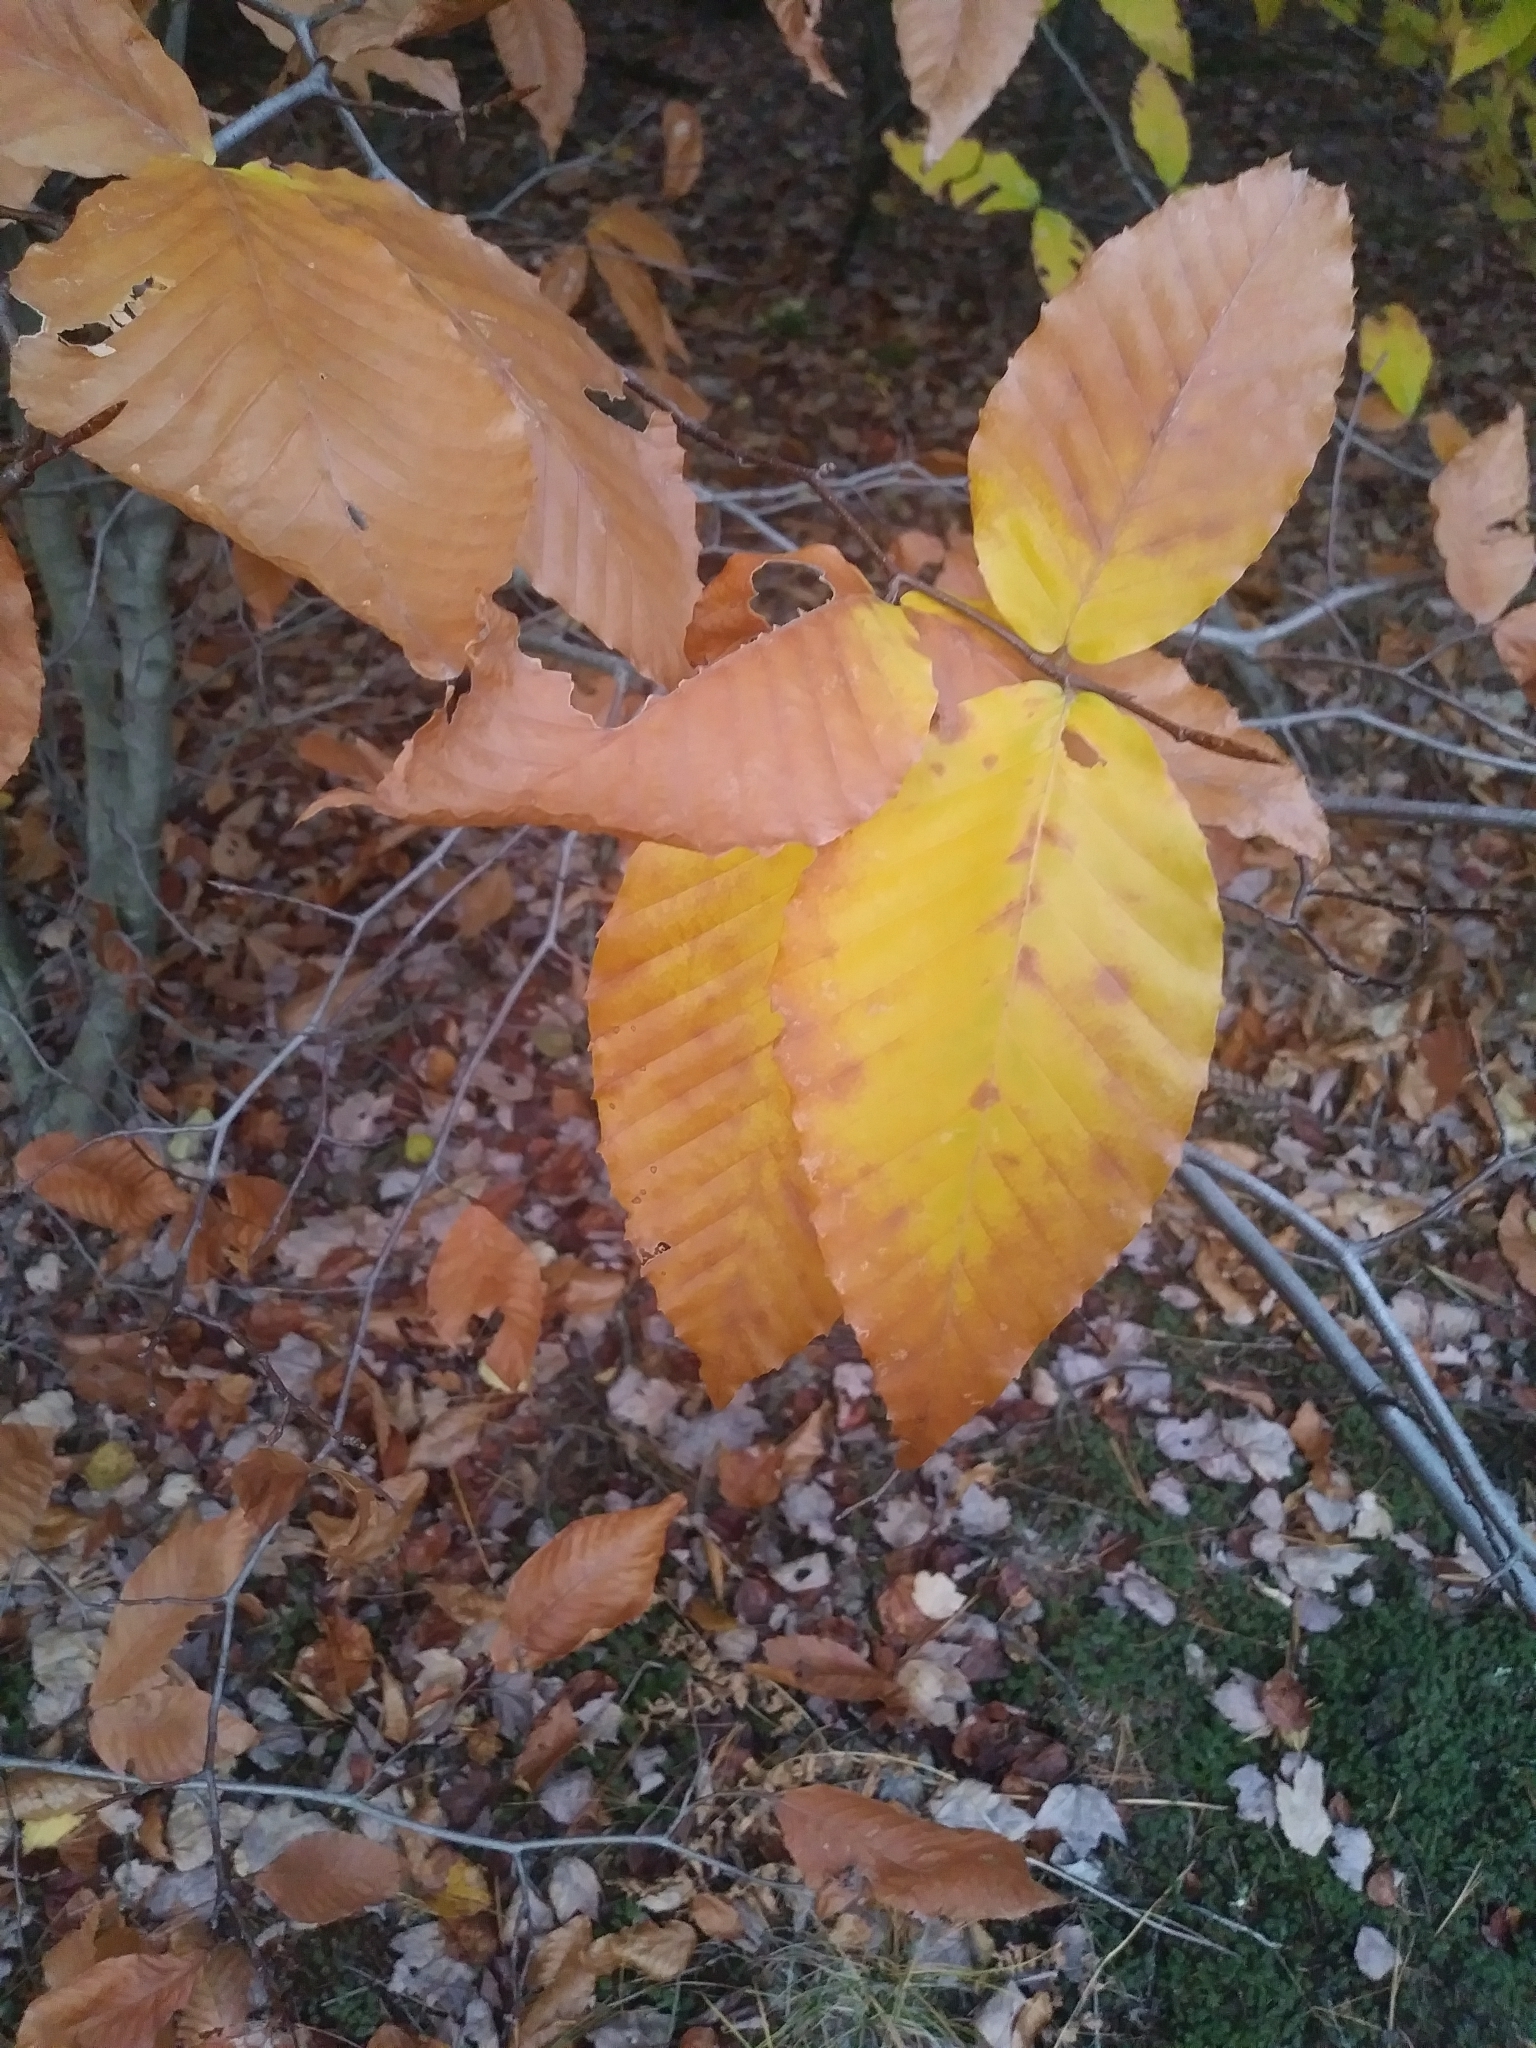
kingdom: Plantae
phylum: Tracheophyta
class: Magnoliopsida
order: Fagales
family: Fagaceae
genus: Fagus
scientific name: Fagus grandifolia
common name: American beech
